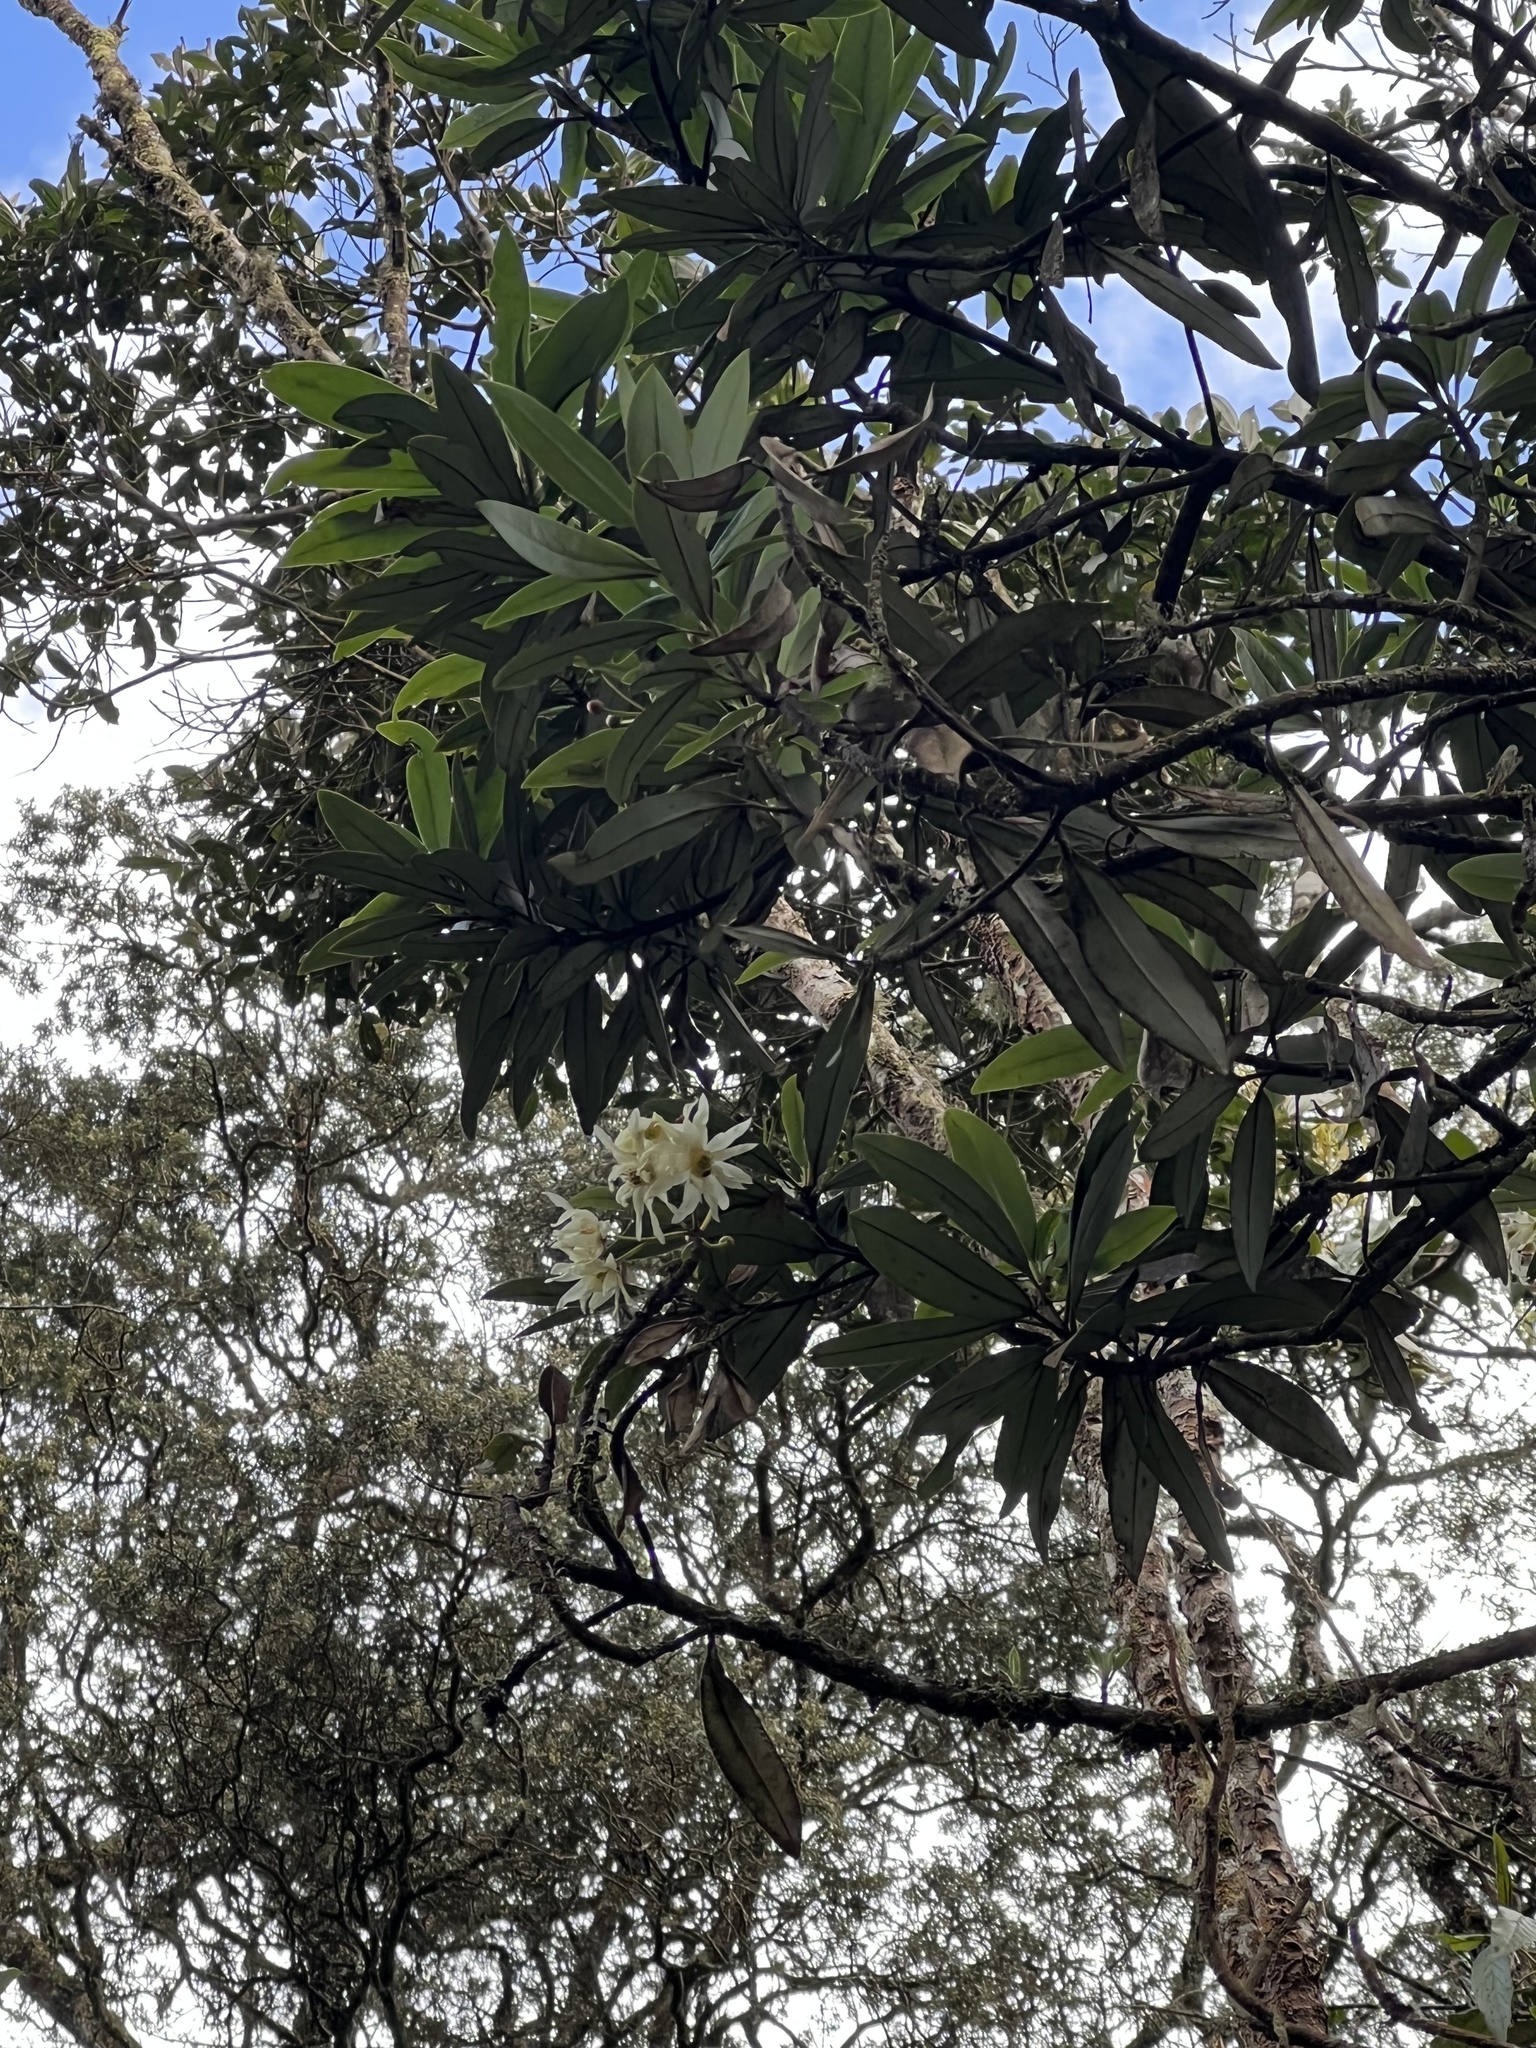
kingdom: Plantae
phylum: Tracheophyta
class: Magnoliopsida
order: Canellales
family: Winteraceae
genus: Drimys
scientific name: Drimys granadensis
